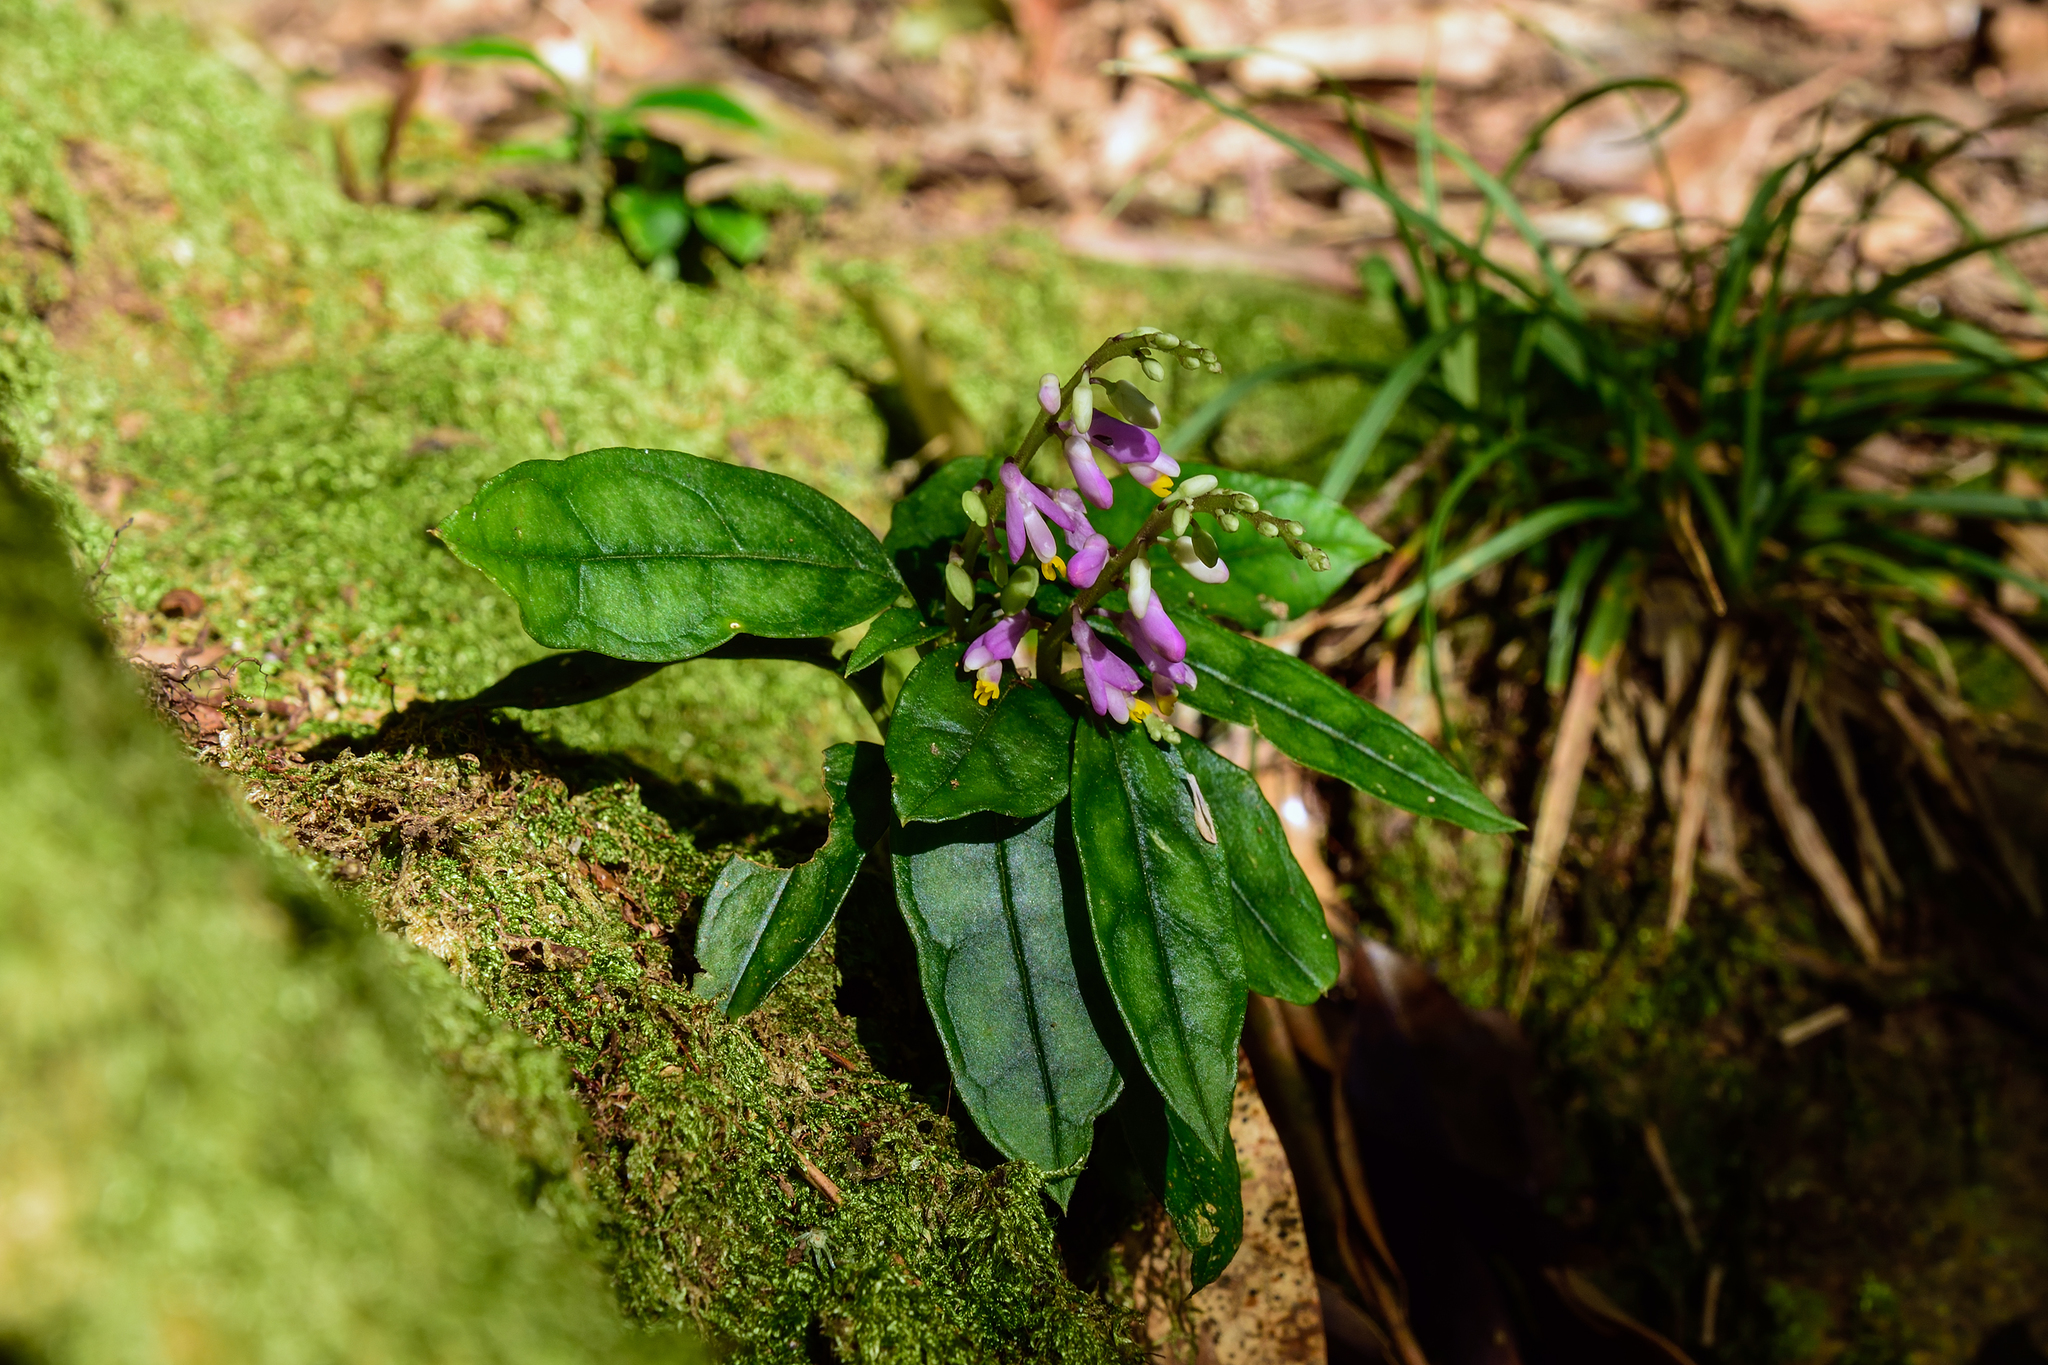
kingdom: Plantae
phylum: Tracheophyta
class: Magnoliopsida
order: Fabales
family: Polygalaceae
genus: Polygala
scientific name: Polygala arcuata
